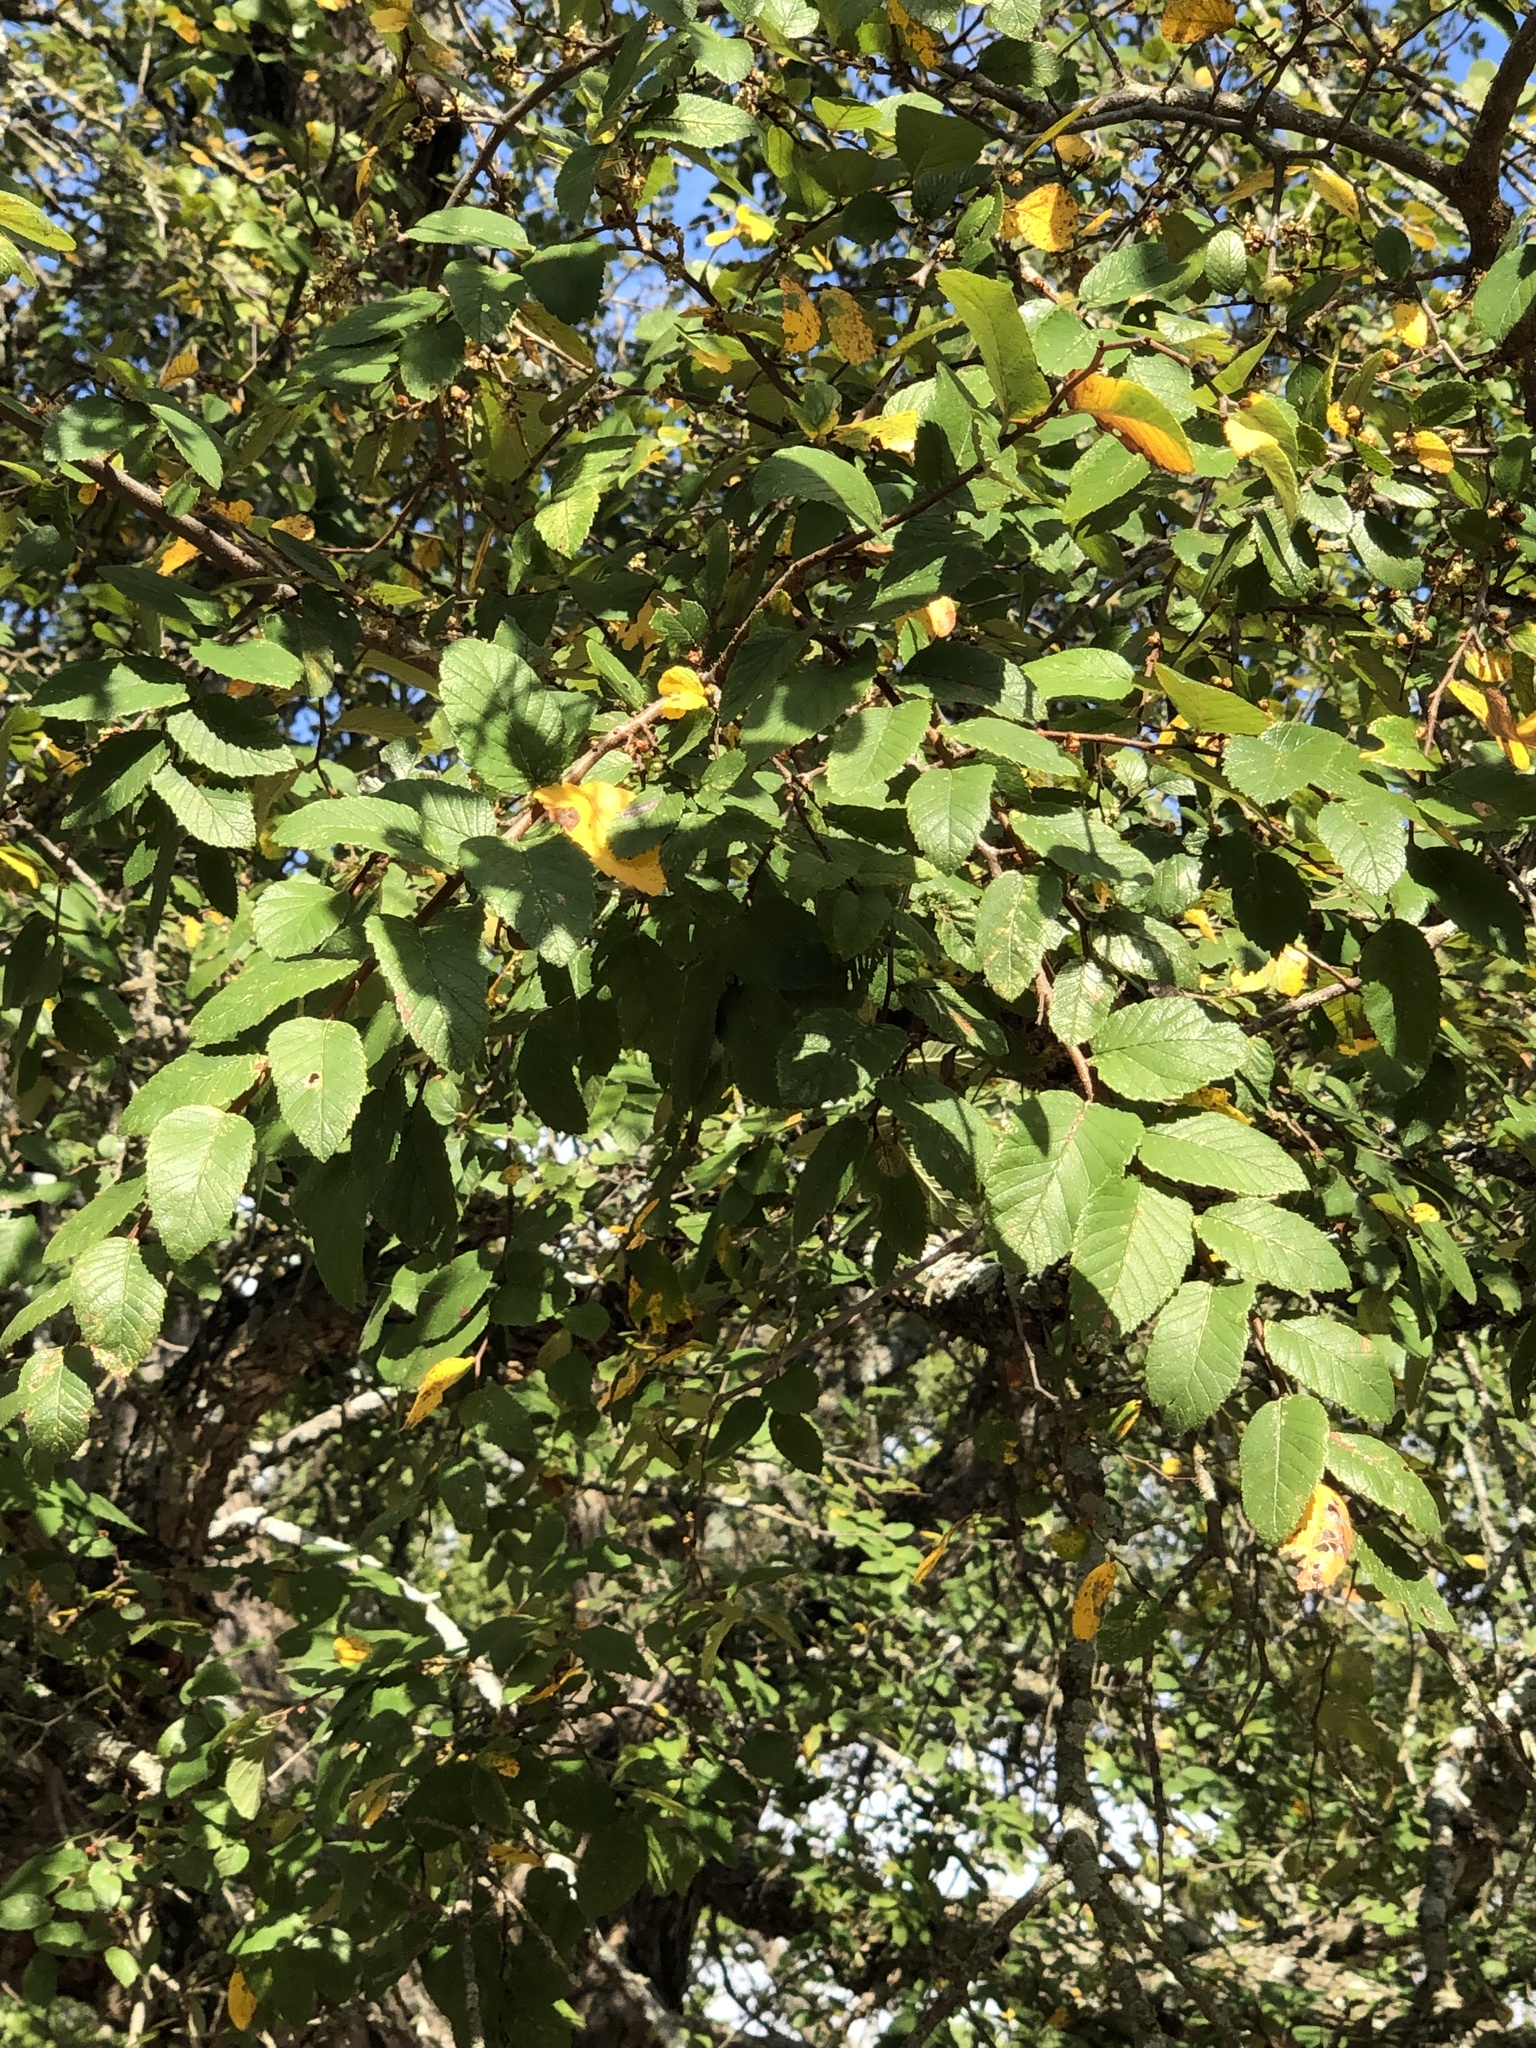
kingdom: Plantae
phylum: Tracheophyta
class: Magnoliopsida
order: Rosales
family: Ulmaceae
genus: Ulmus
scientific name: Ulmus crassifolia
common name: Basket elm
